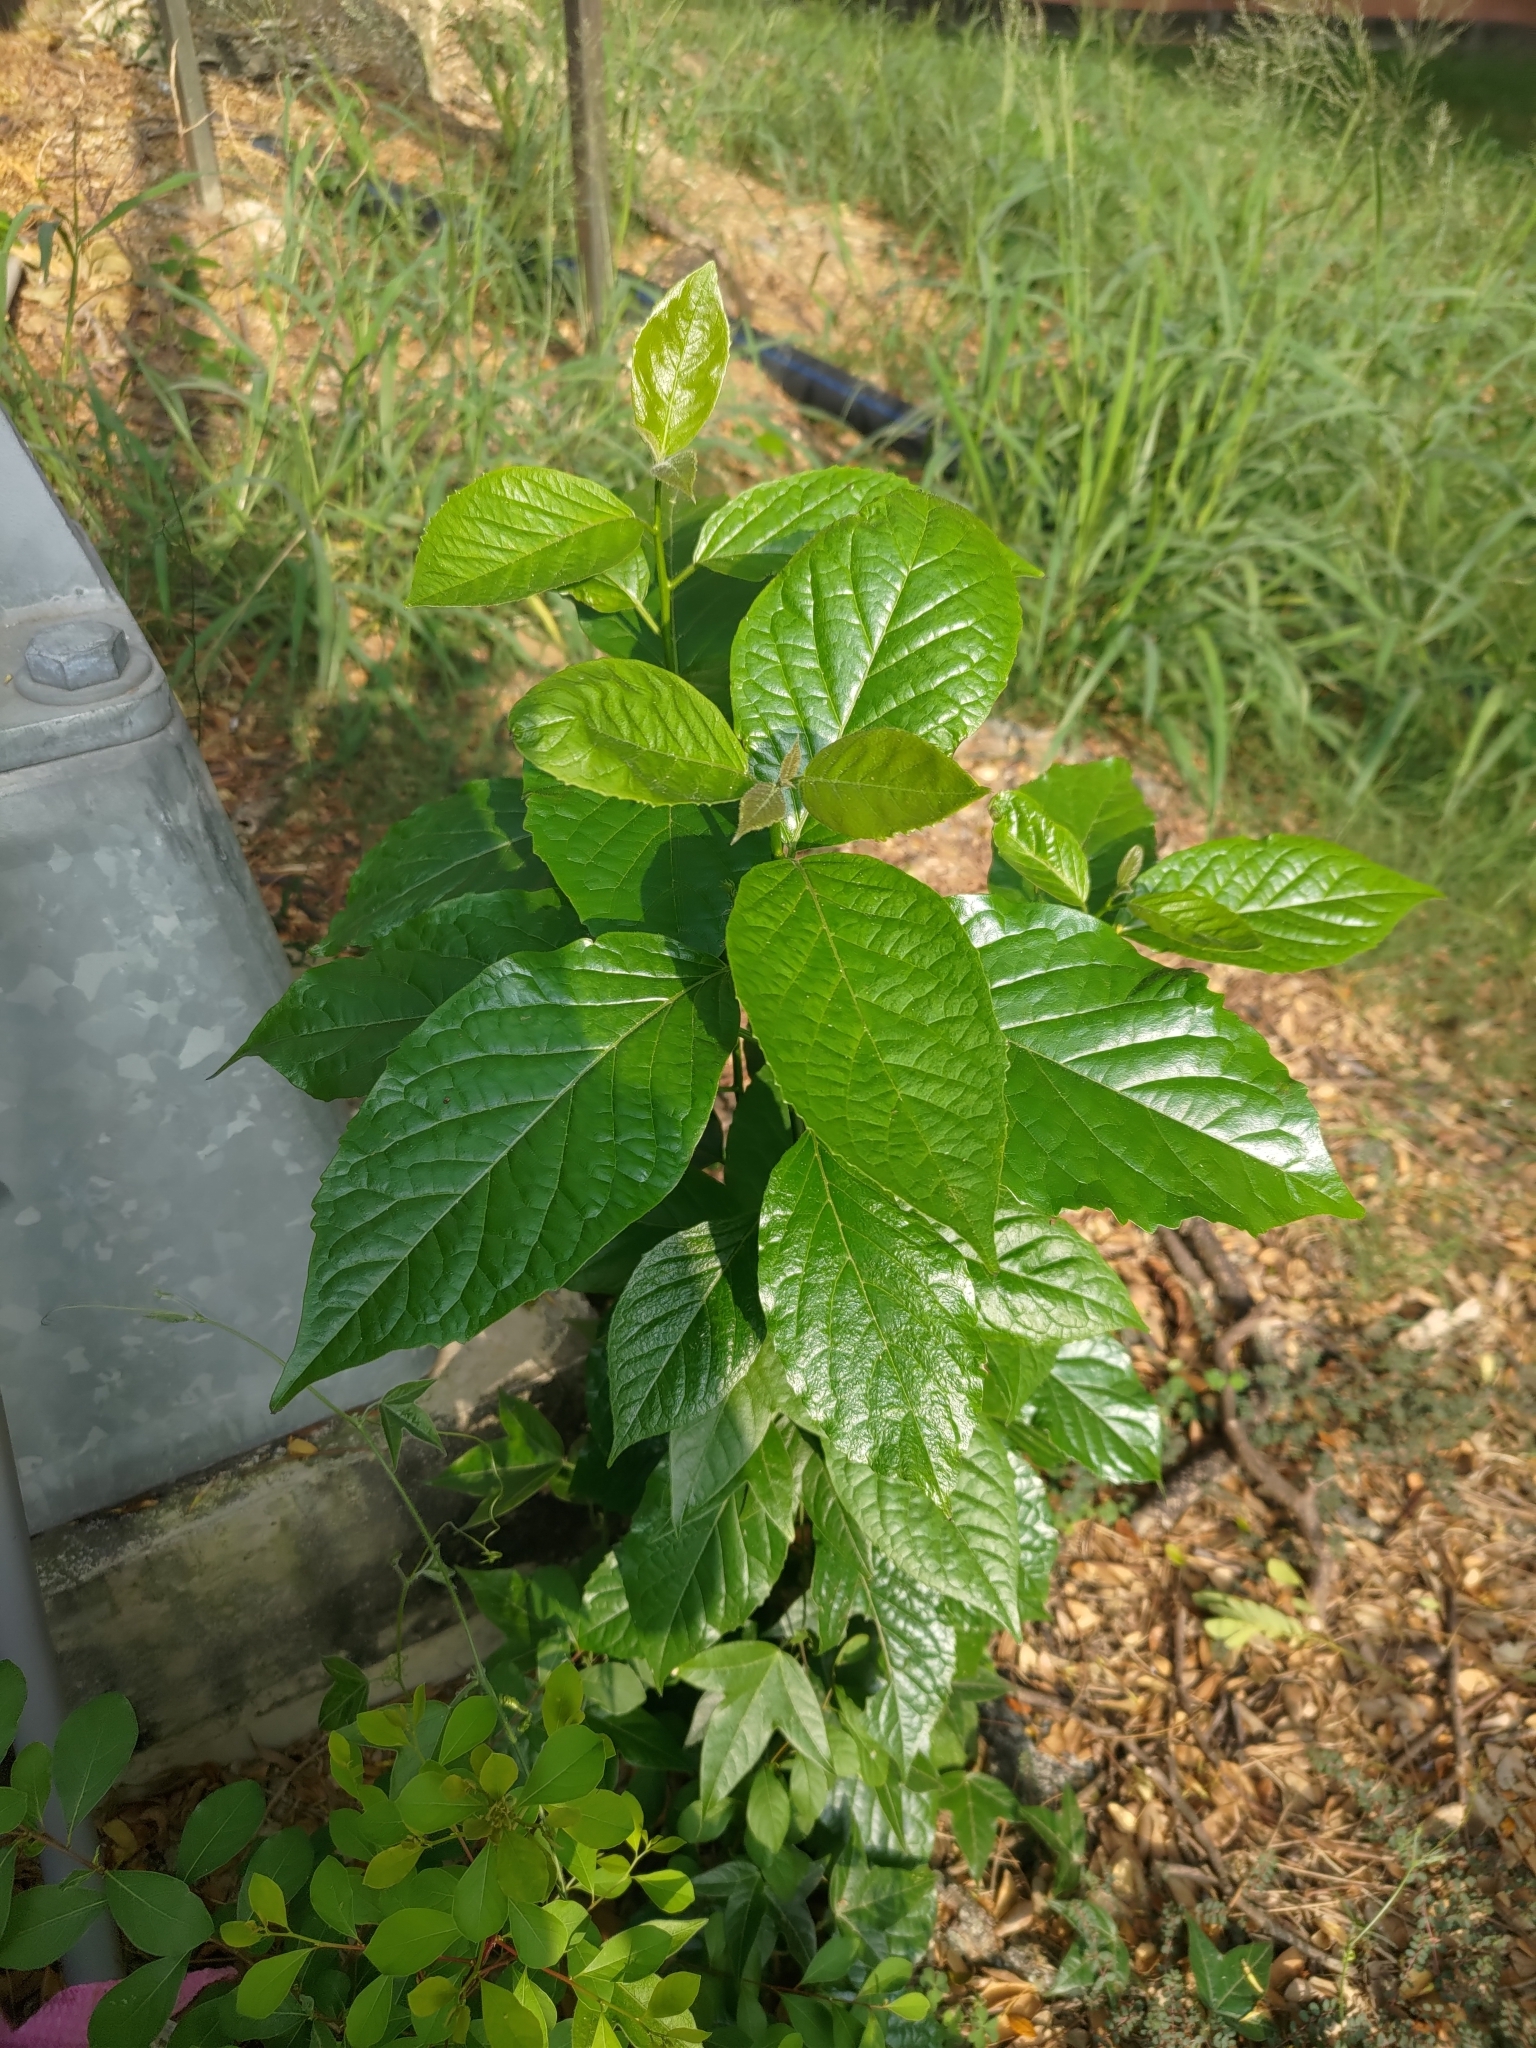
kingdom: Plantae
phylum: Tracheophyta
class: Magnoliopsida
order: Boraginales
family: Ehretiaceae
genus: Ehretia
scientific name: Ehretia resinosa
